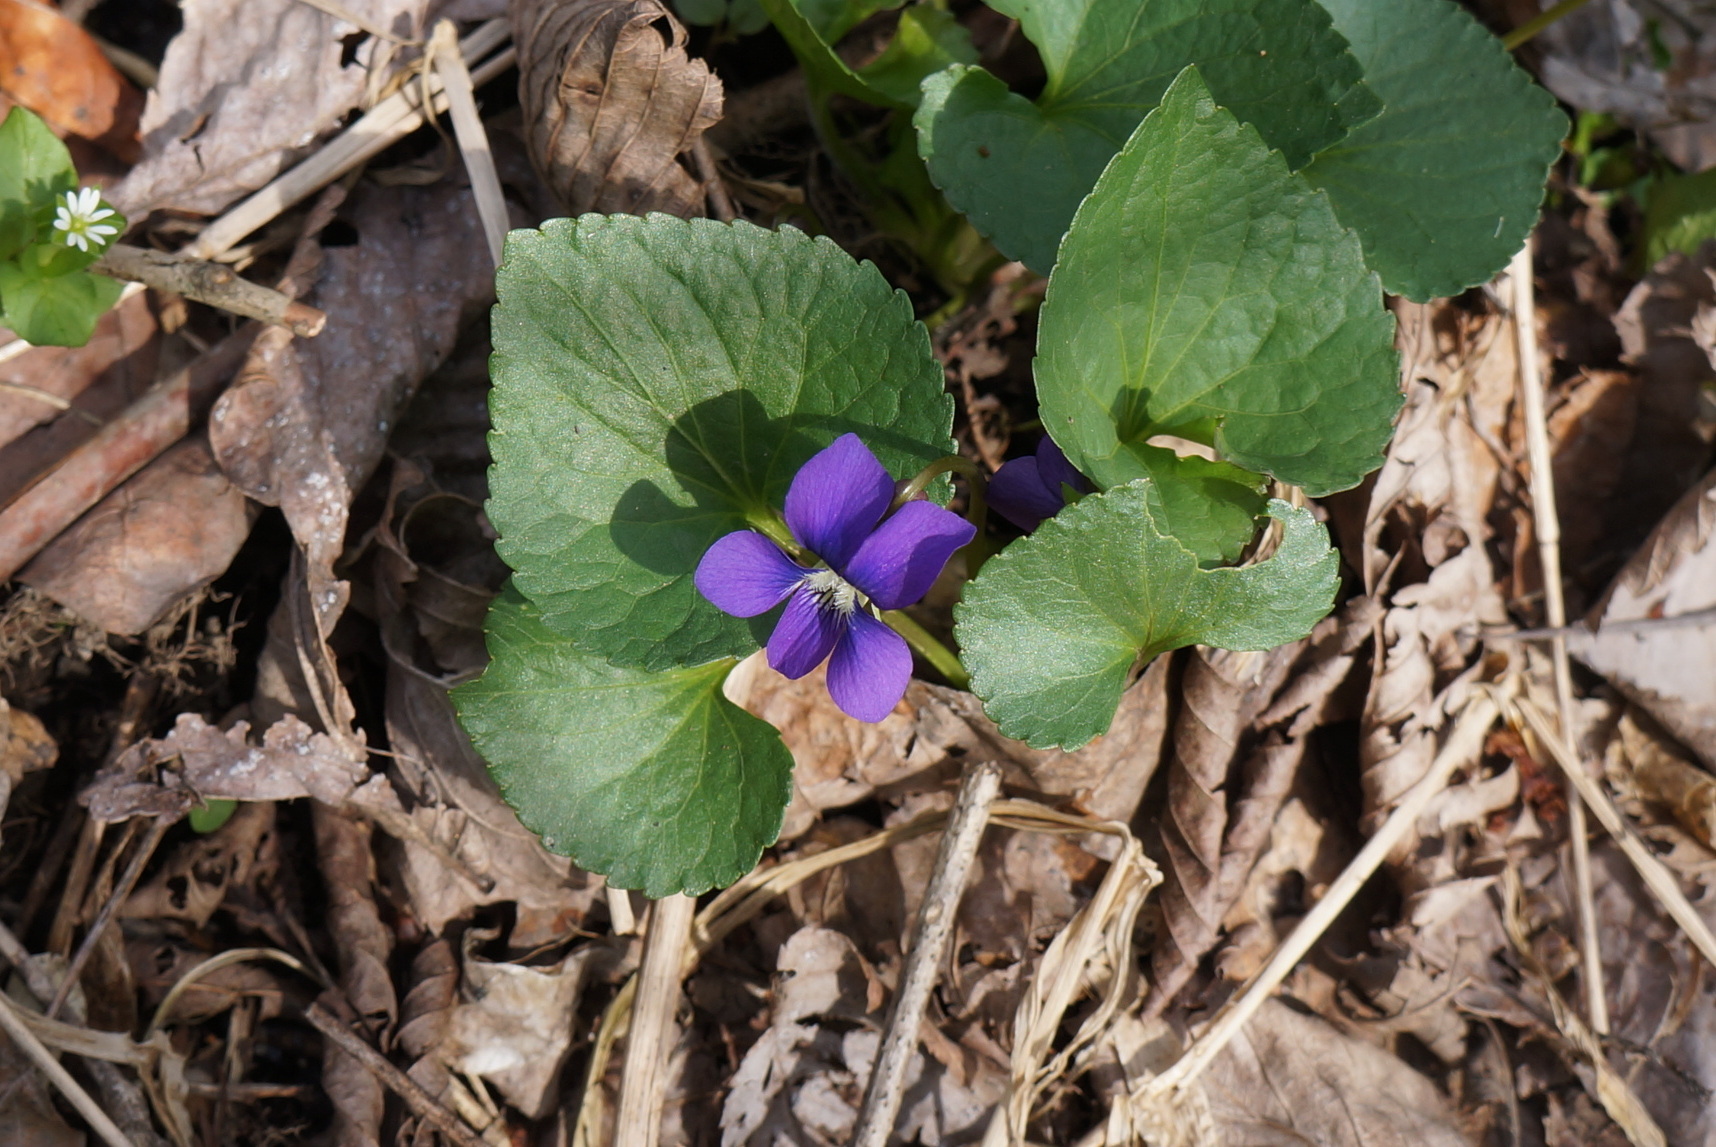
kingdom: Plantae
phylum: Tracheophyta
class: Magnoliopsida
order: Malpighiales
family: Violaceae
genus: Viola
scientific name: Viola sororia
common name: Dooryard violet
